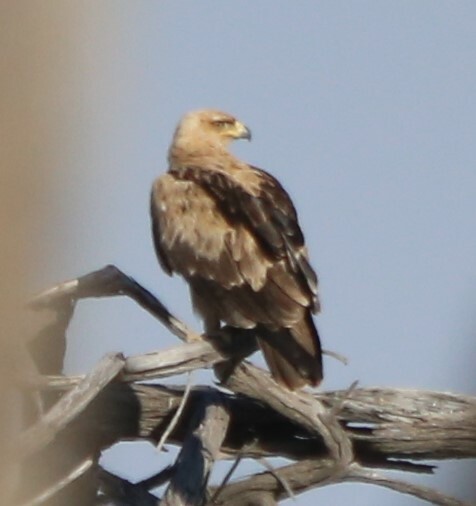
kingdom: Animalia
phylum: Chordata
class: Aves
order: Accipitriformes
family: Accipitridae
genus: Aquila
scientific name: Aquila rapax
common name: Tawny eagle
